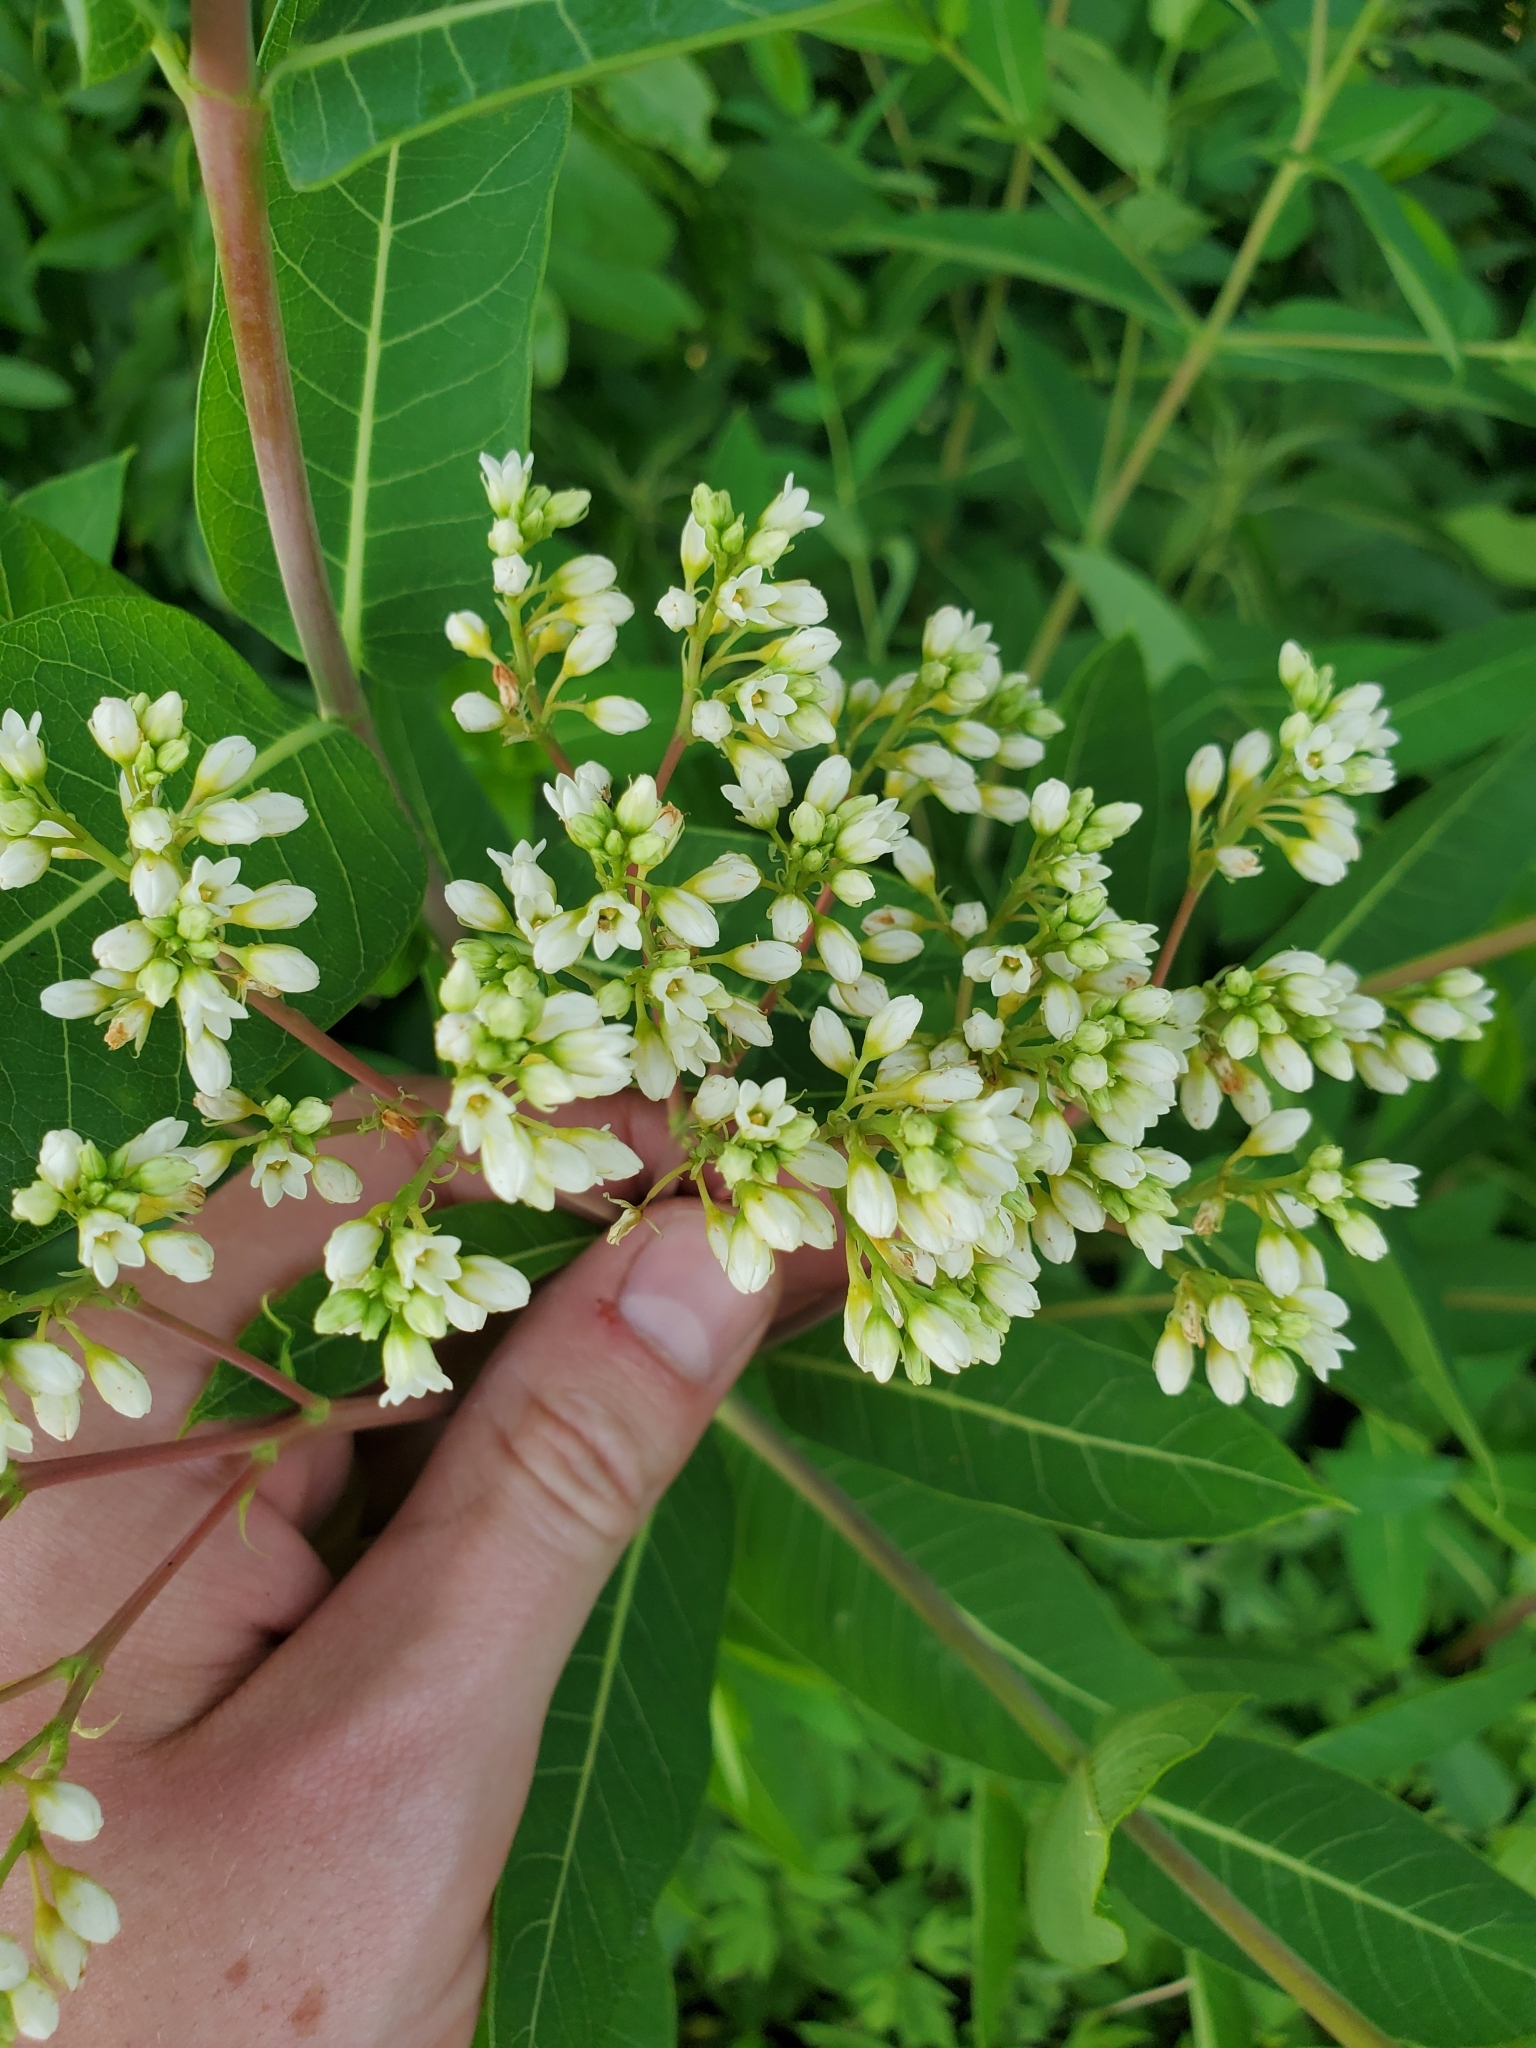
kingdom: Plantae
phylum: Tracheophyta
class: Magnoliopsida
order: Gentianales
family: Apocynaceae
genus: Apocynum
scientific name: Apocynum cannabinum
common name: Hemp dogbane
